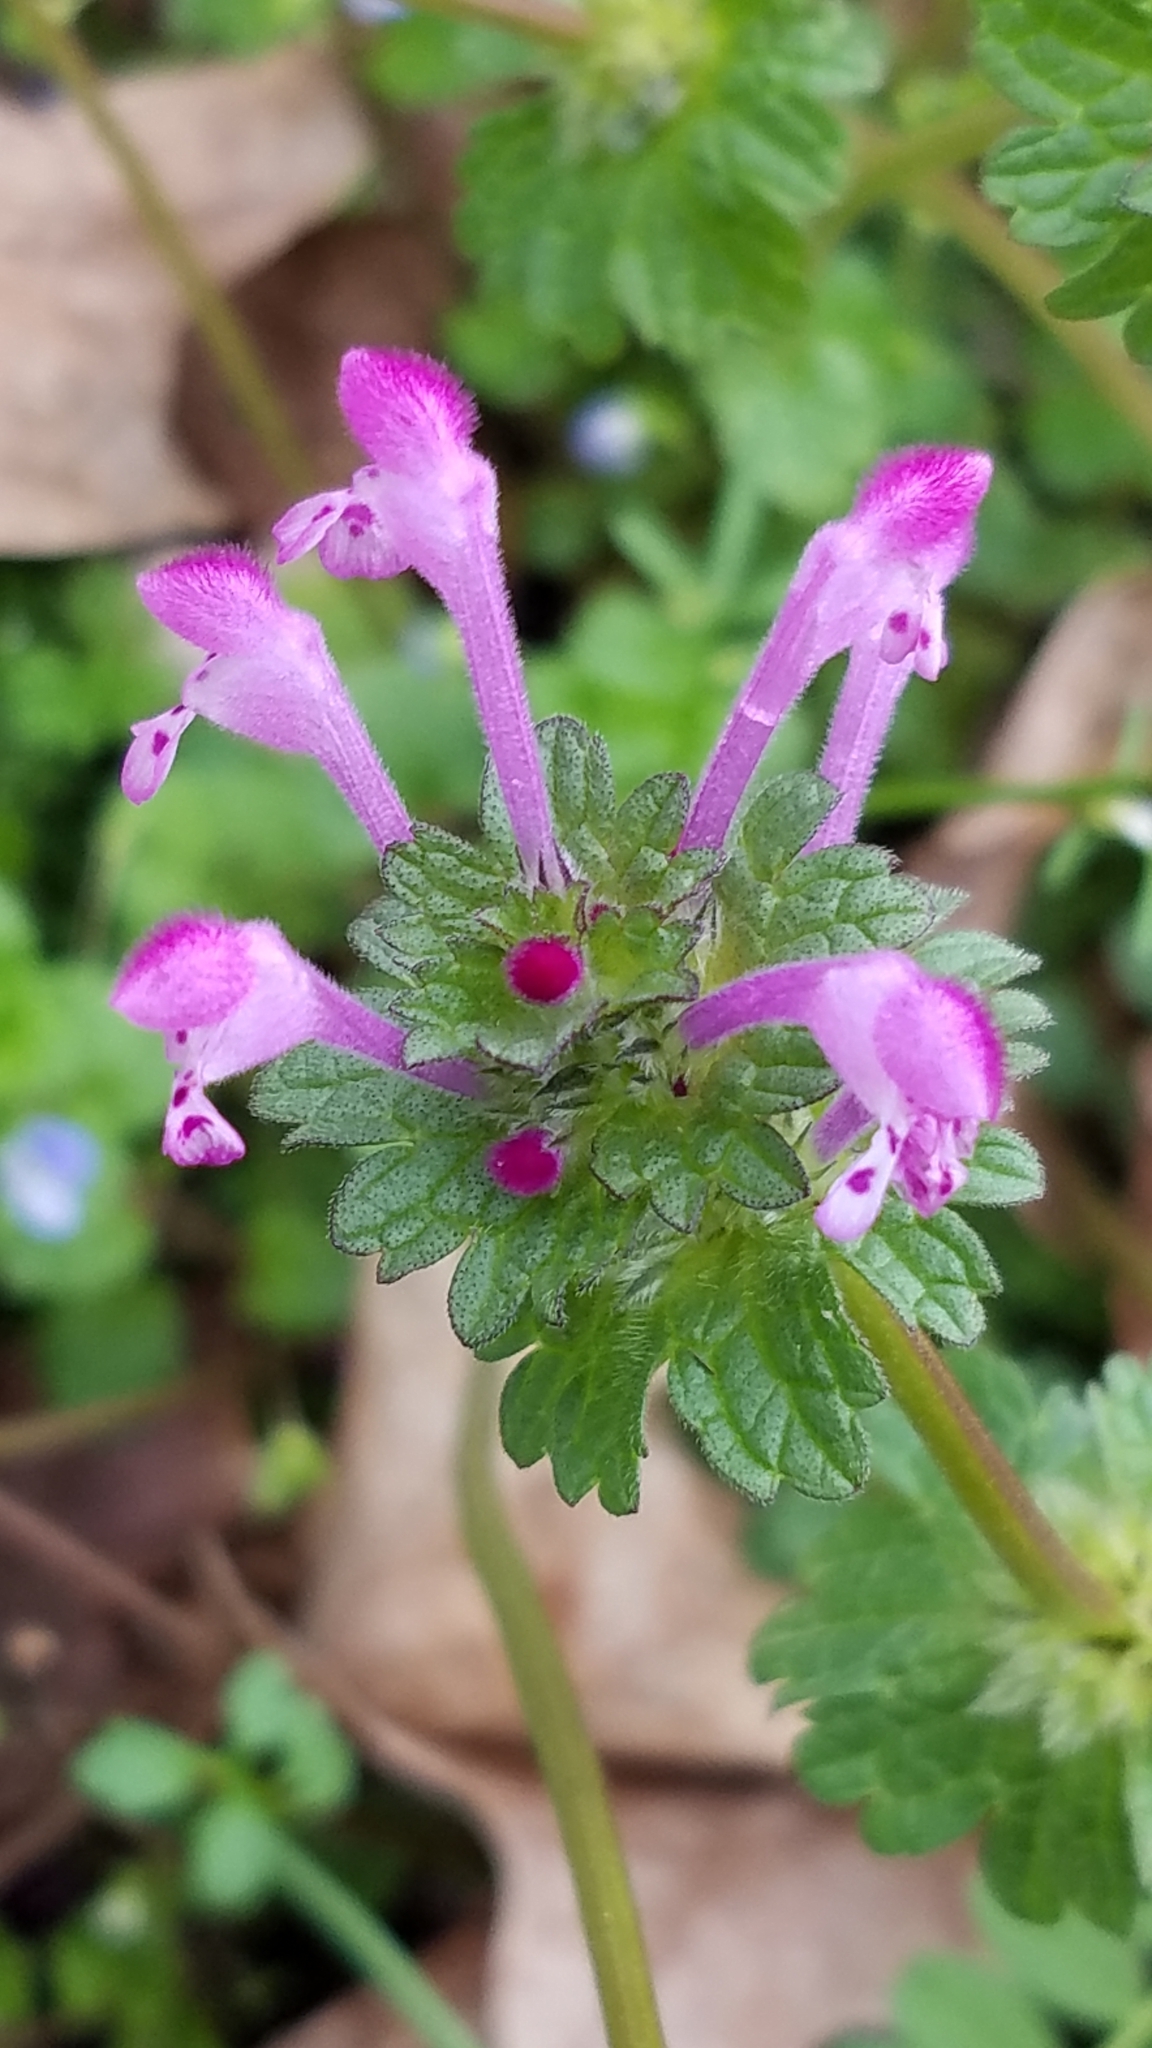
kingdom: Plantae
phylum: Tracheophyta
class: Magnoliopsida
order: Lamiales
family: Lamiaceae
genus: Lamium
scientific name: Lamium amplexicaule
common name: Henbit dead-nettle
